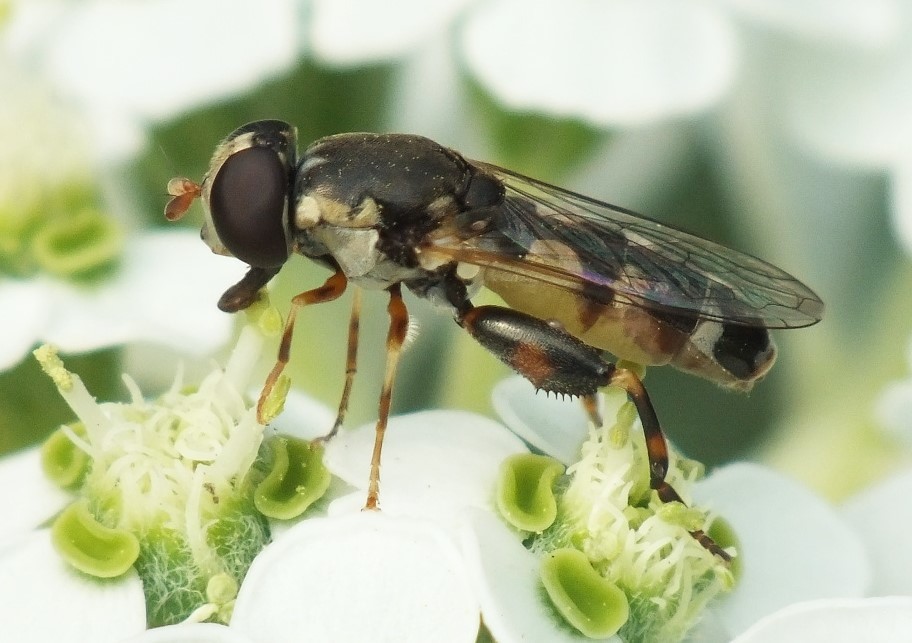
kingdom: Animalia
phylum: Arthropoda
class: Insecta
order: Diptera
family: Syrphidae
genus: Syritta
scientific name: Syritta pipiens
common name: Hover fly
